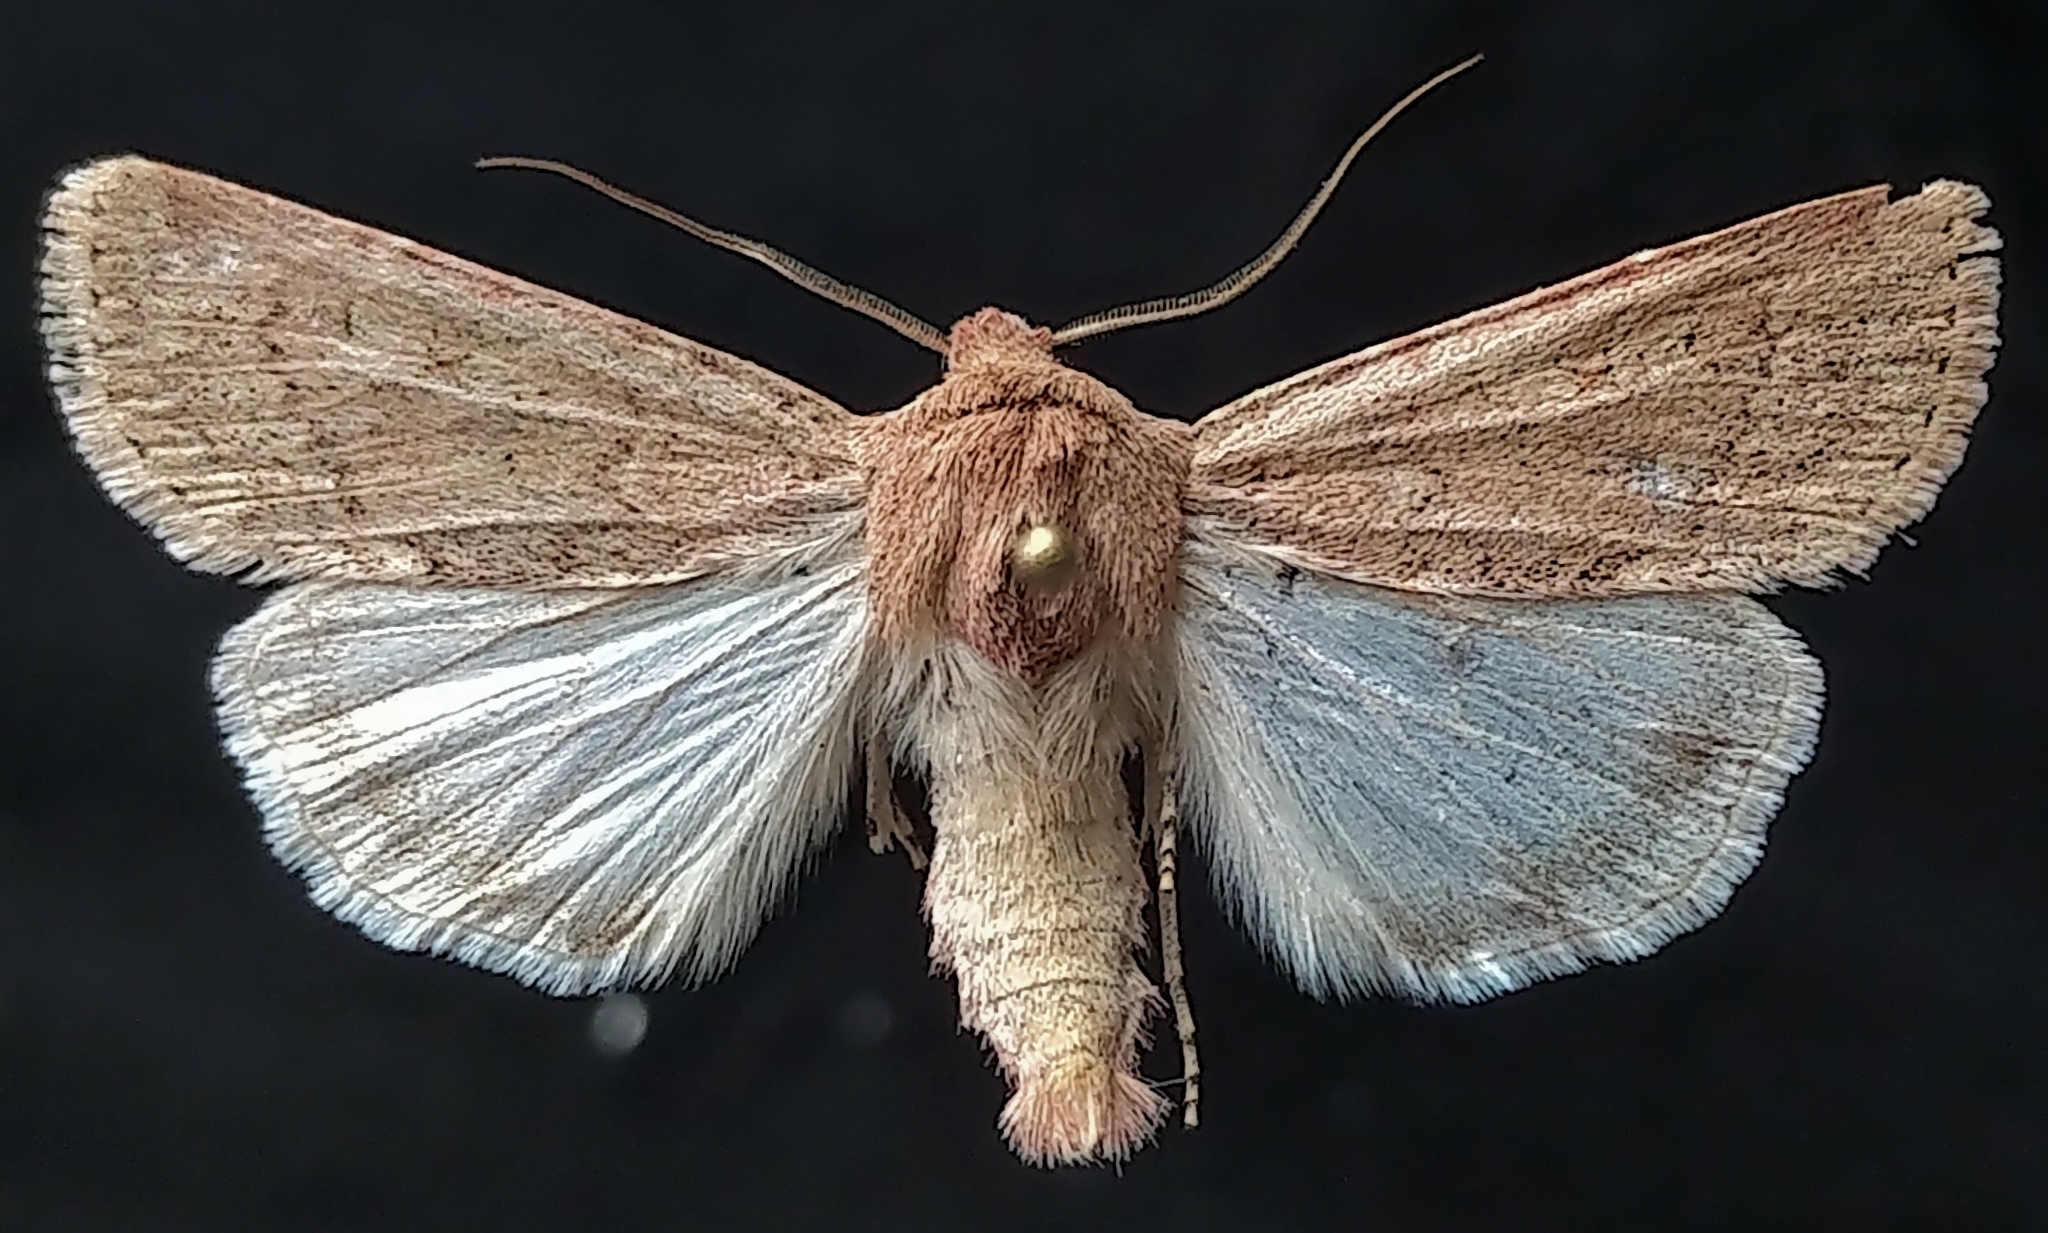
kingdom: Animalia
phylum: Arthropoda
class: Insecta
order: Lepidoptera
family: Noctuidae
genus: Euxoa
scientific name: Euxoa medialis
